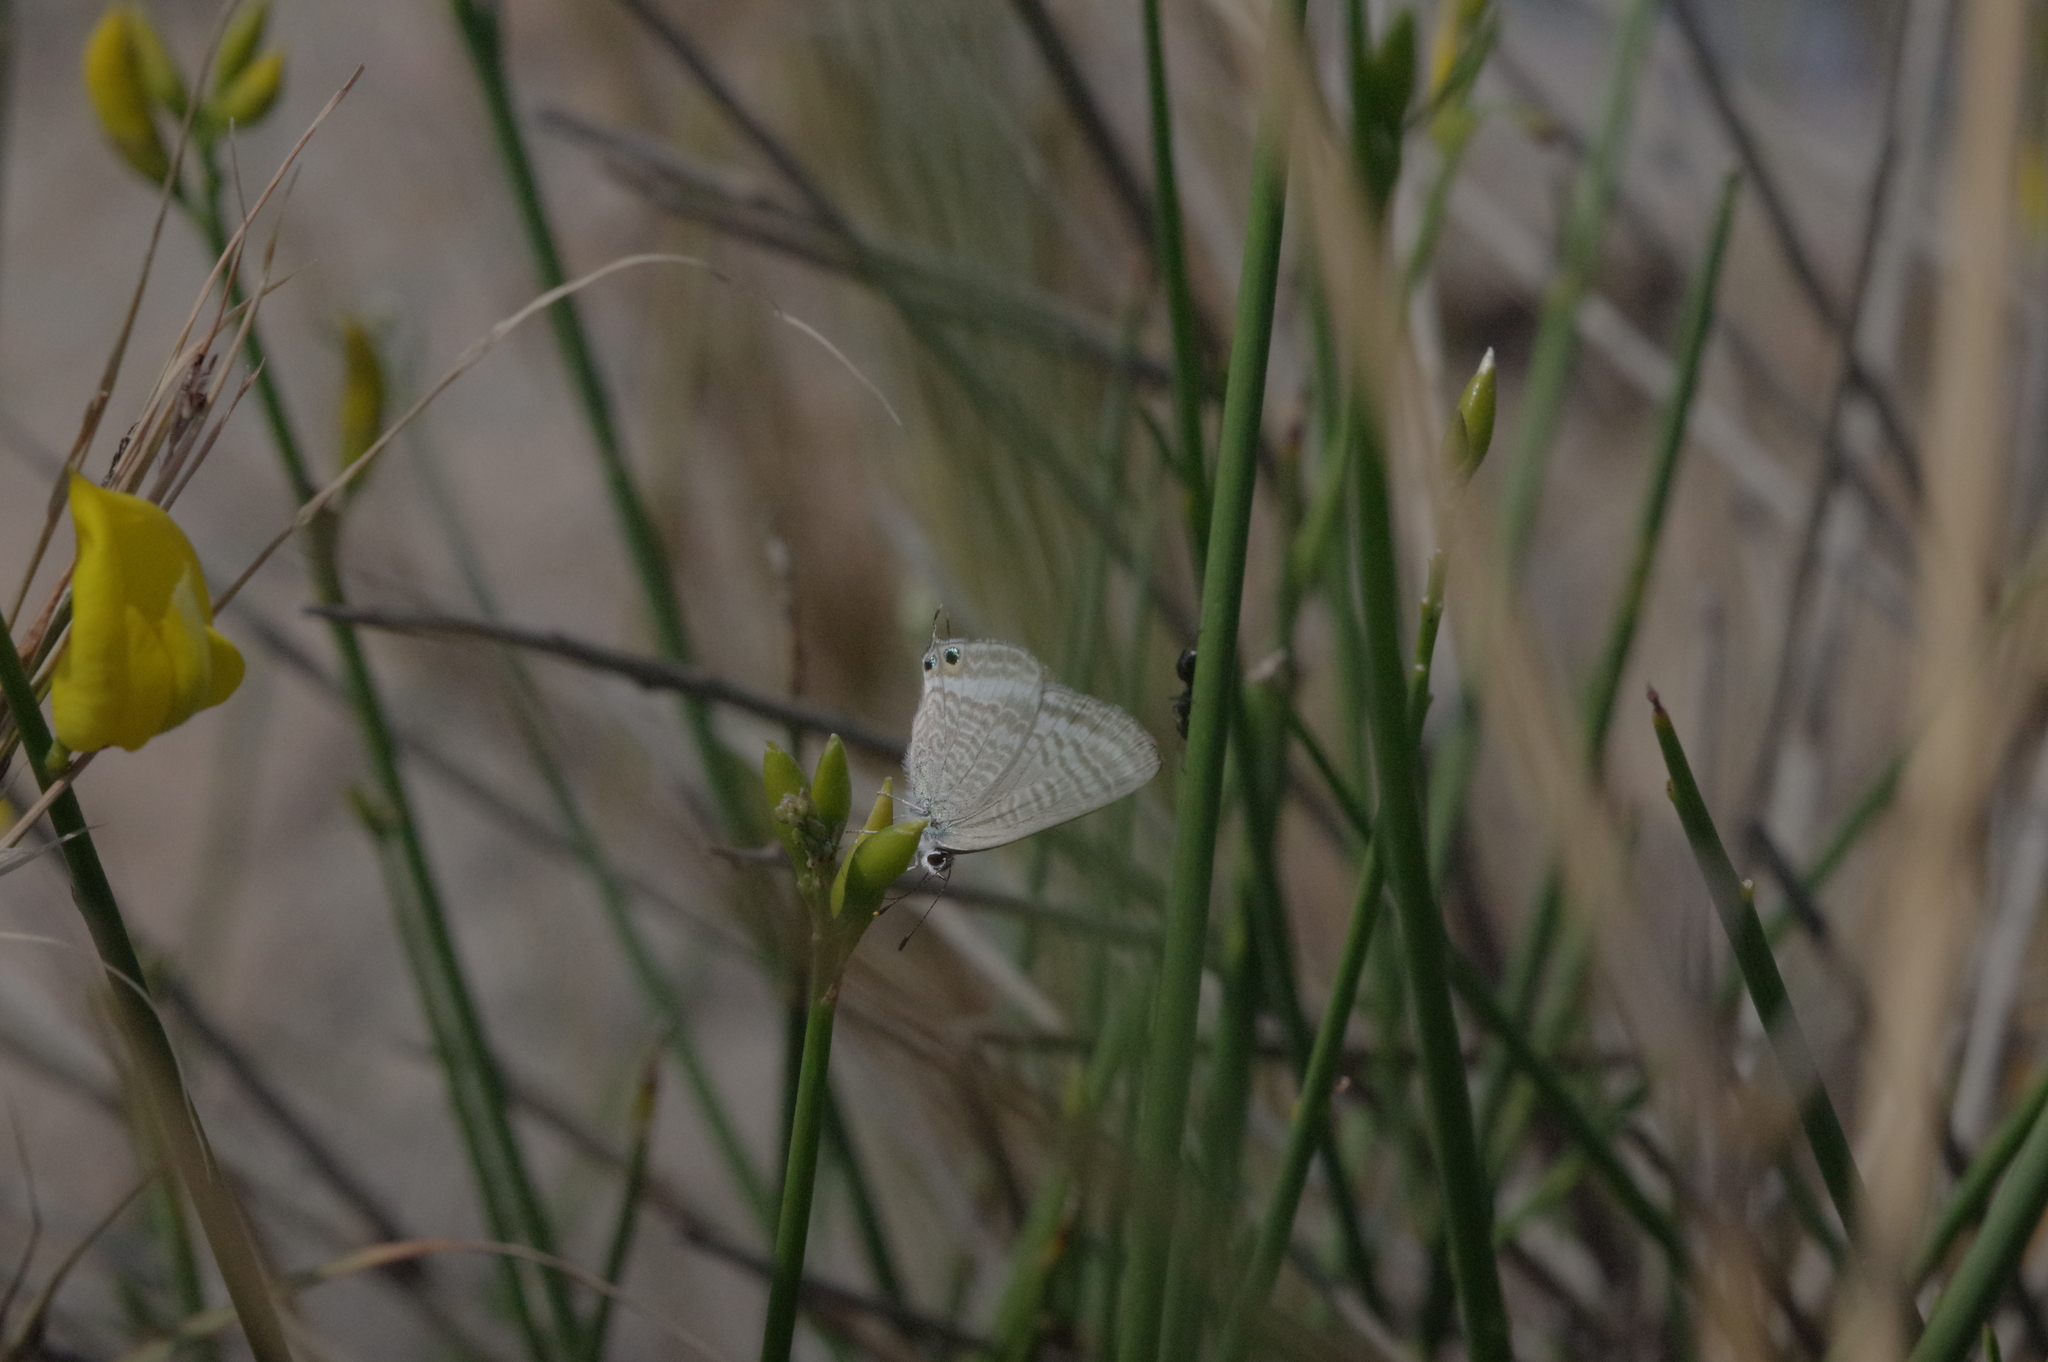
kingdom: Animalia
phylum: Arthropoda
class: Insecta
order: Lepidoptera
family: Lycaenidae
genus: Lampides
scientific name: Lampides boeticus
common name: Long-tailed blue
